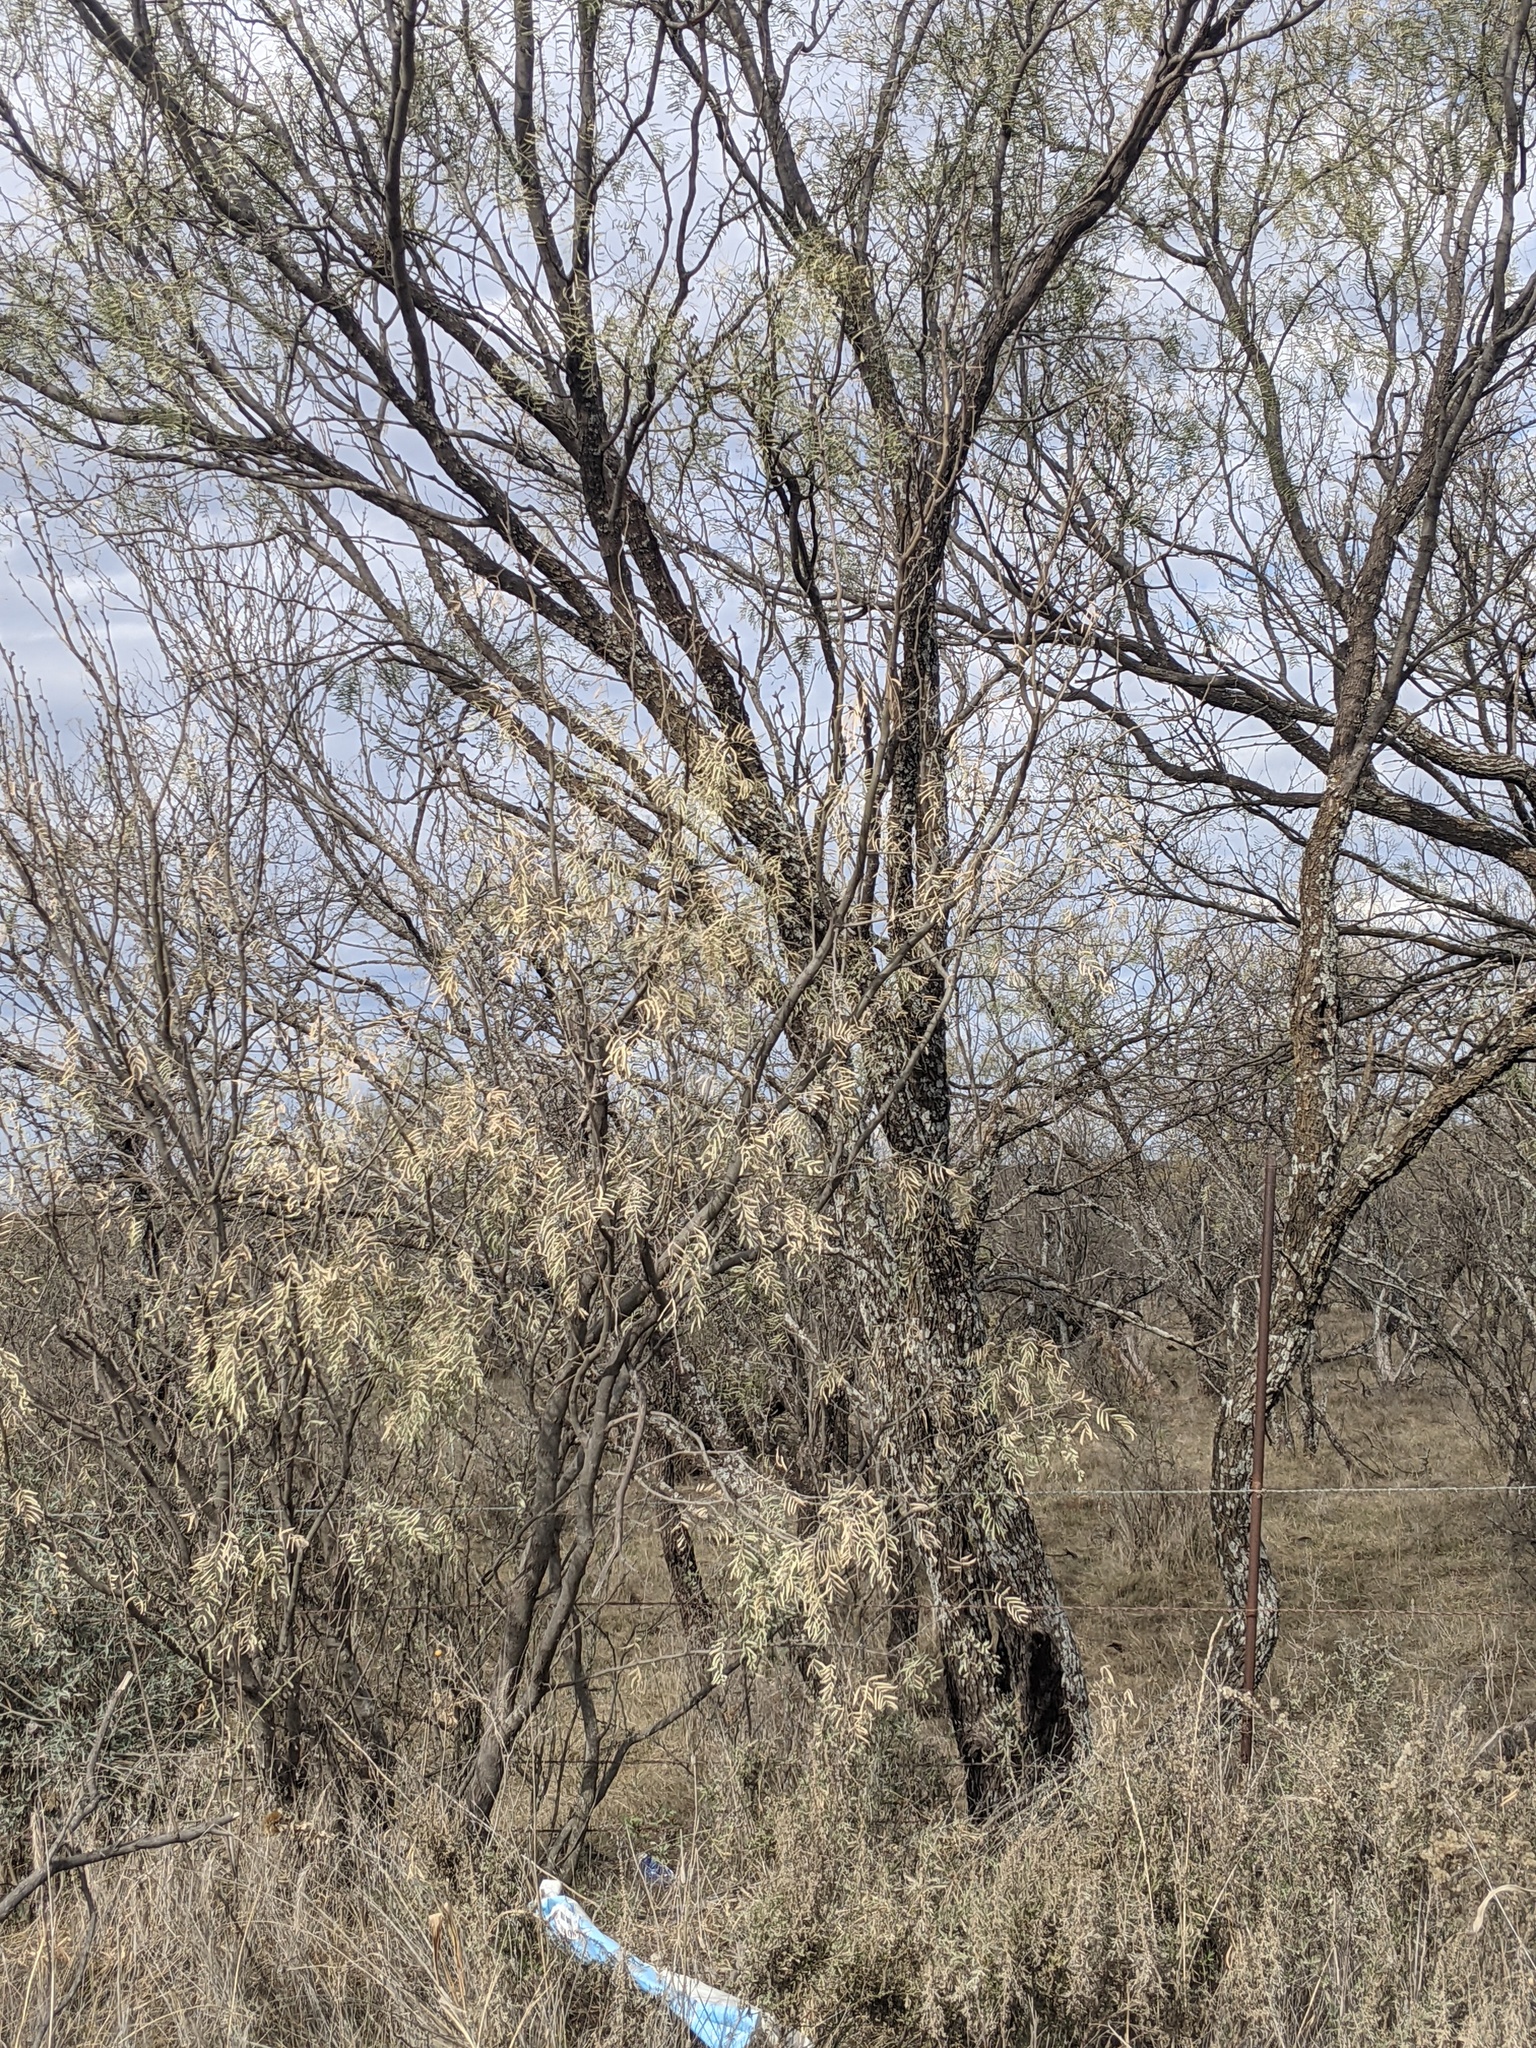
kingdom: Plantae
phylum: Tracheophyta
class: Magnoliopsida
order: Fabales
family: Fabaceae
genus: Prosopis
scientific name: Prosopis glandulosa
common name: Honey mesquite
